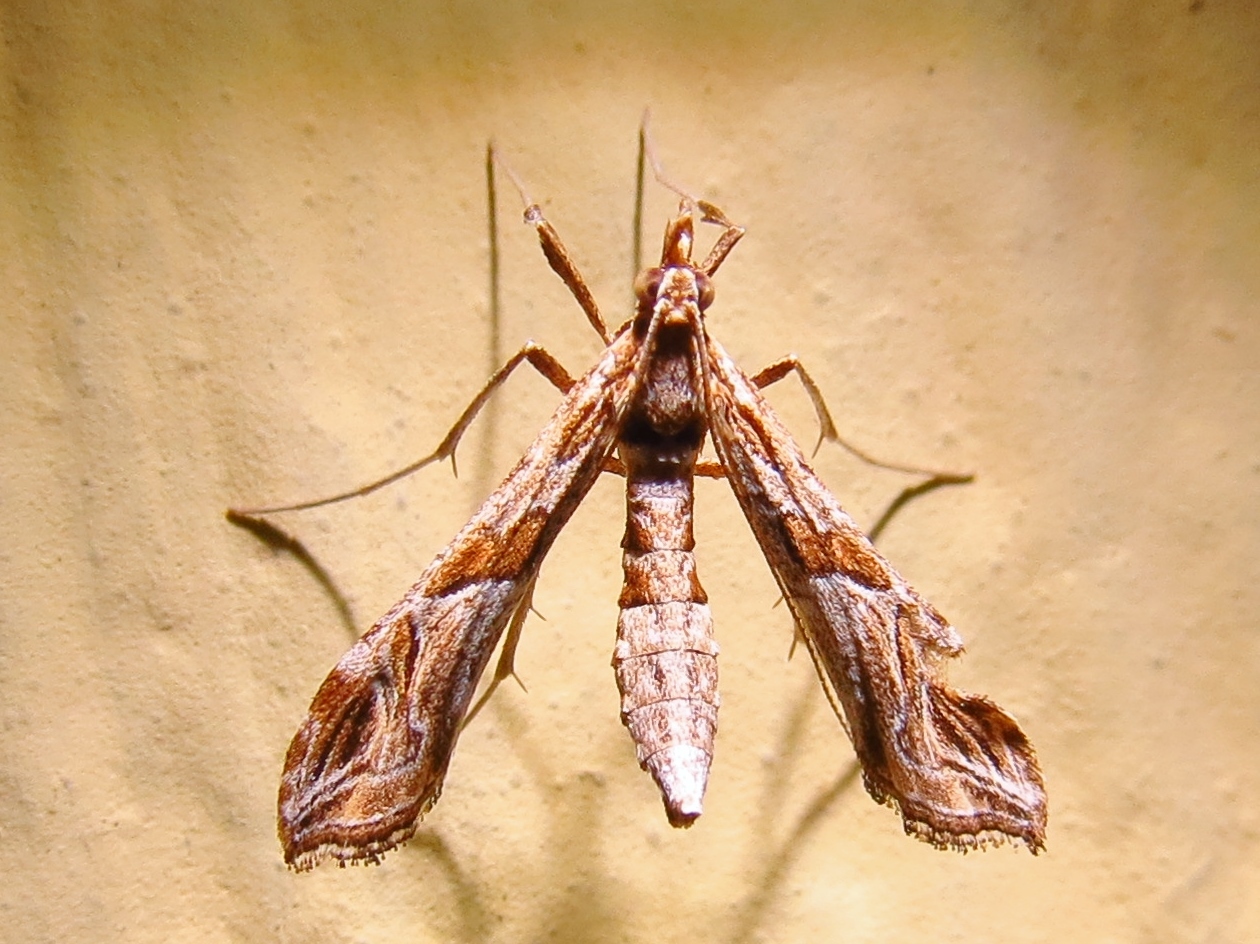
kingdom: Animalia
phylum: Arthropoda
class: Insecta
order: Lepidoptera
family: Crambidae
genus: Lineodes
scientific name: Lineodes interrupta
